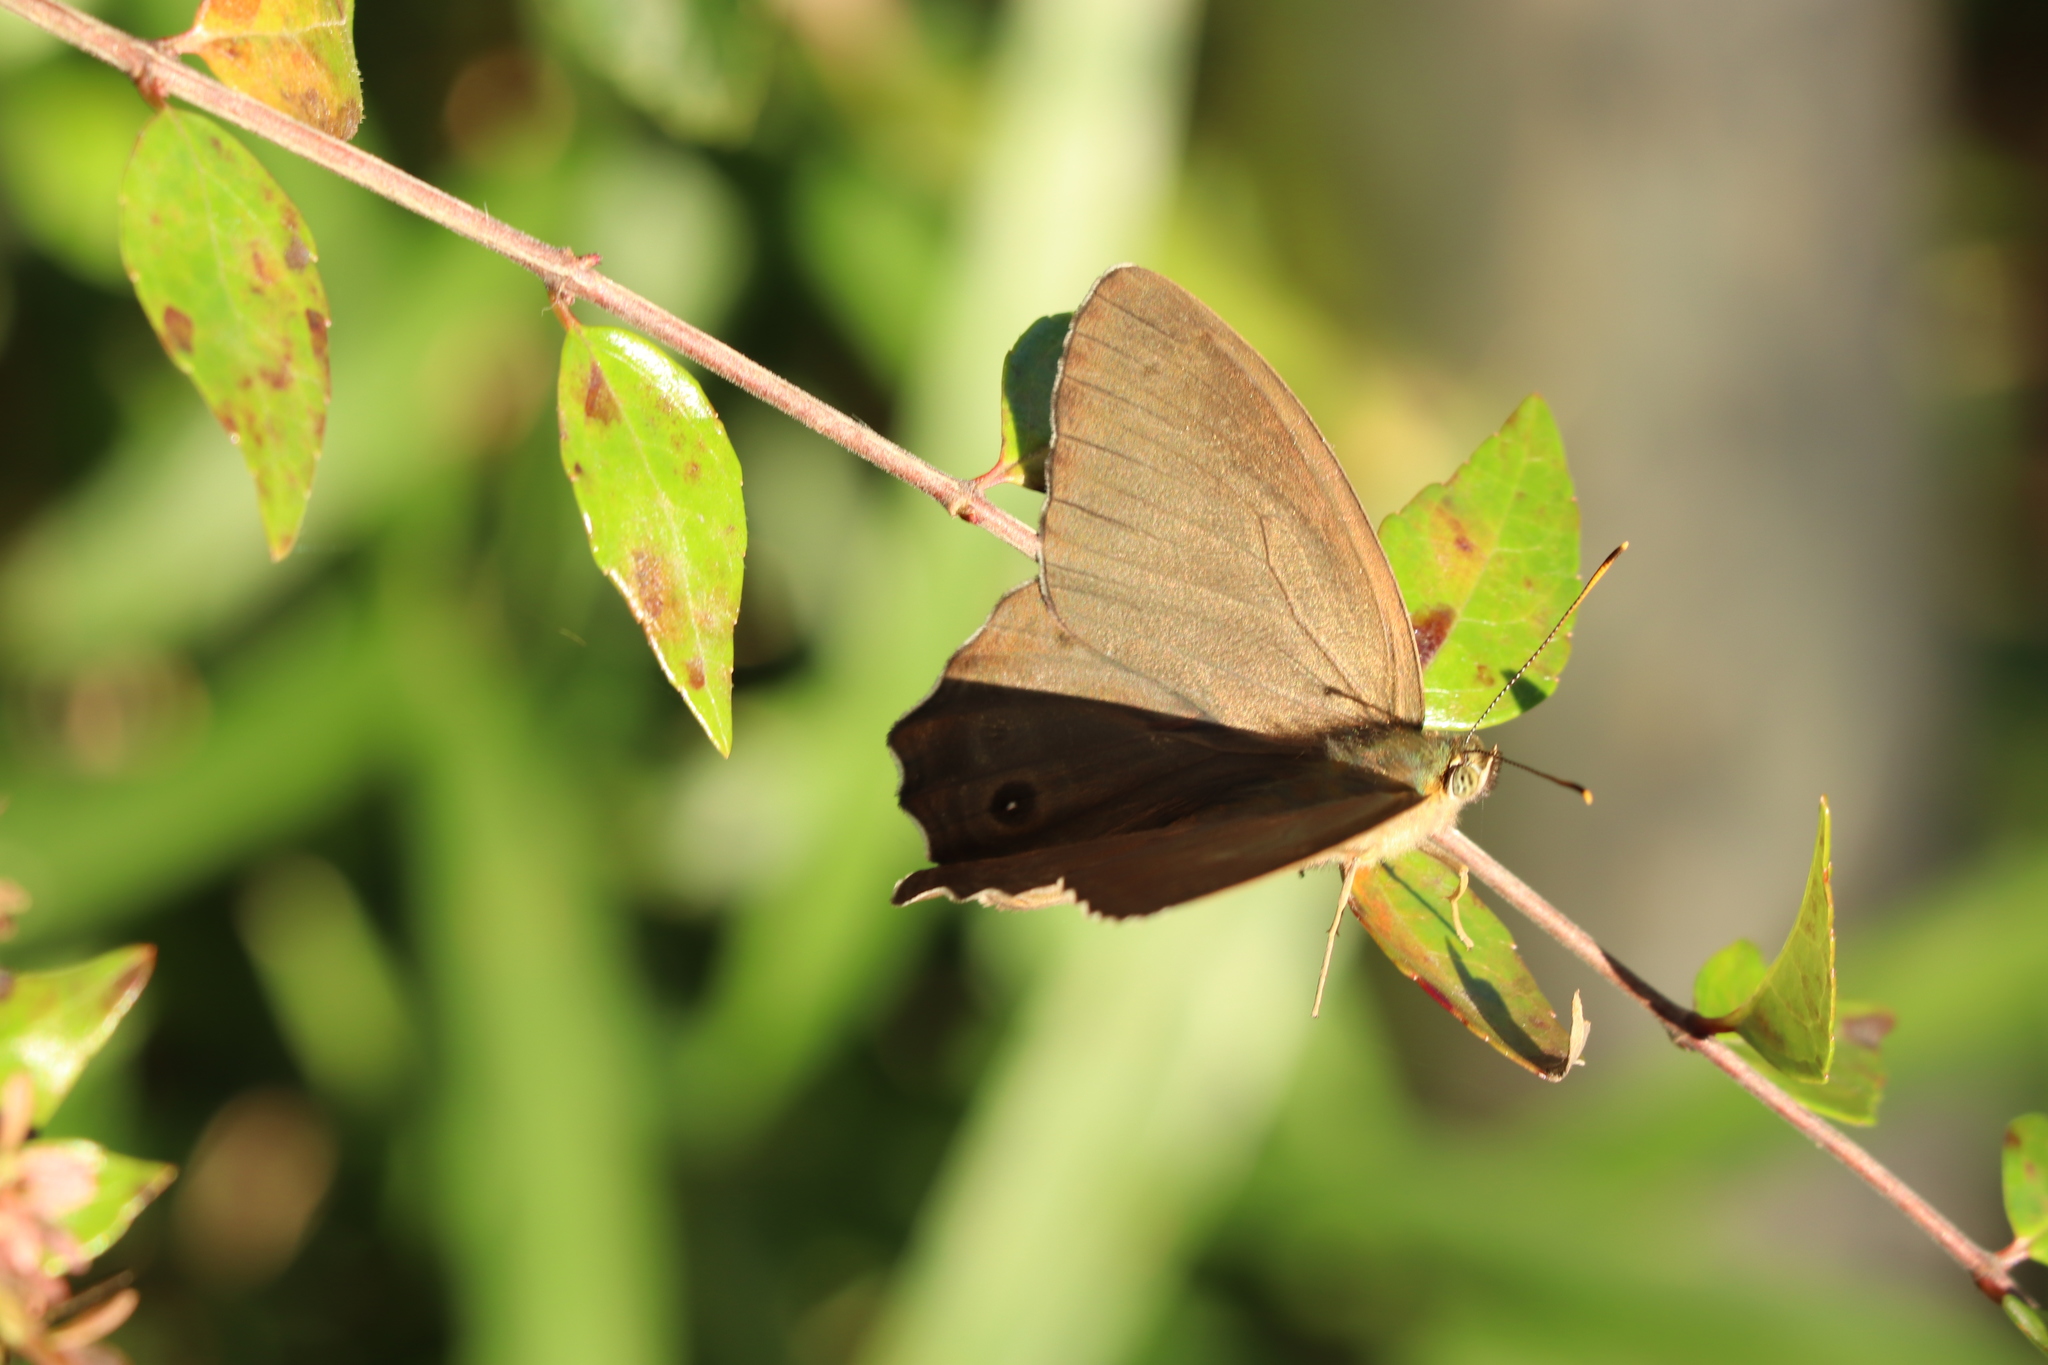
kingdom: Animalia
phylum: Arthropoda
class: Insecta
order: Lepidoptera
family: Nymphalidae
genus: Lethe
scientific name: Lethe sicelis
